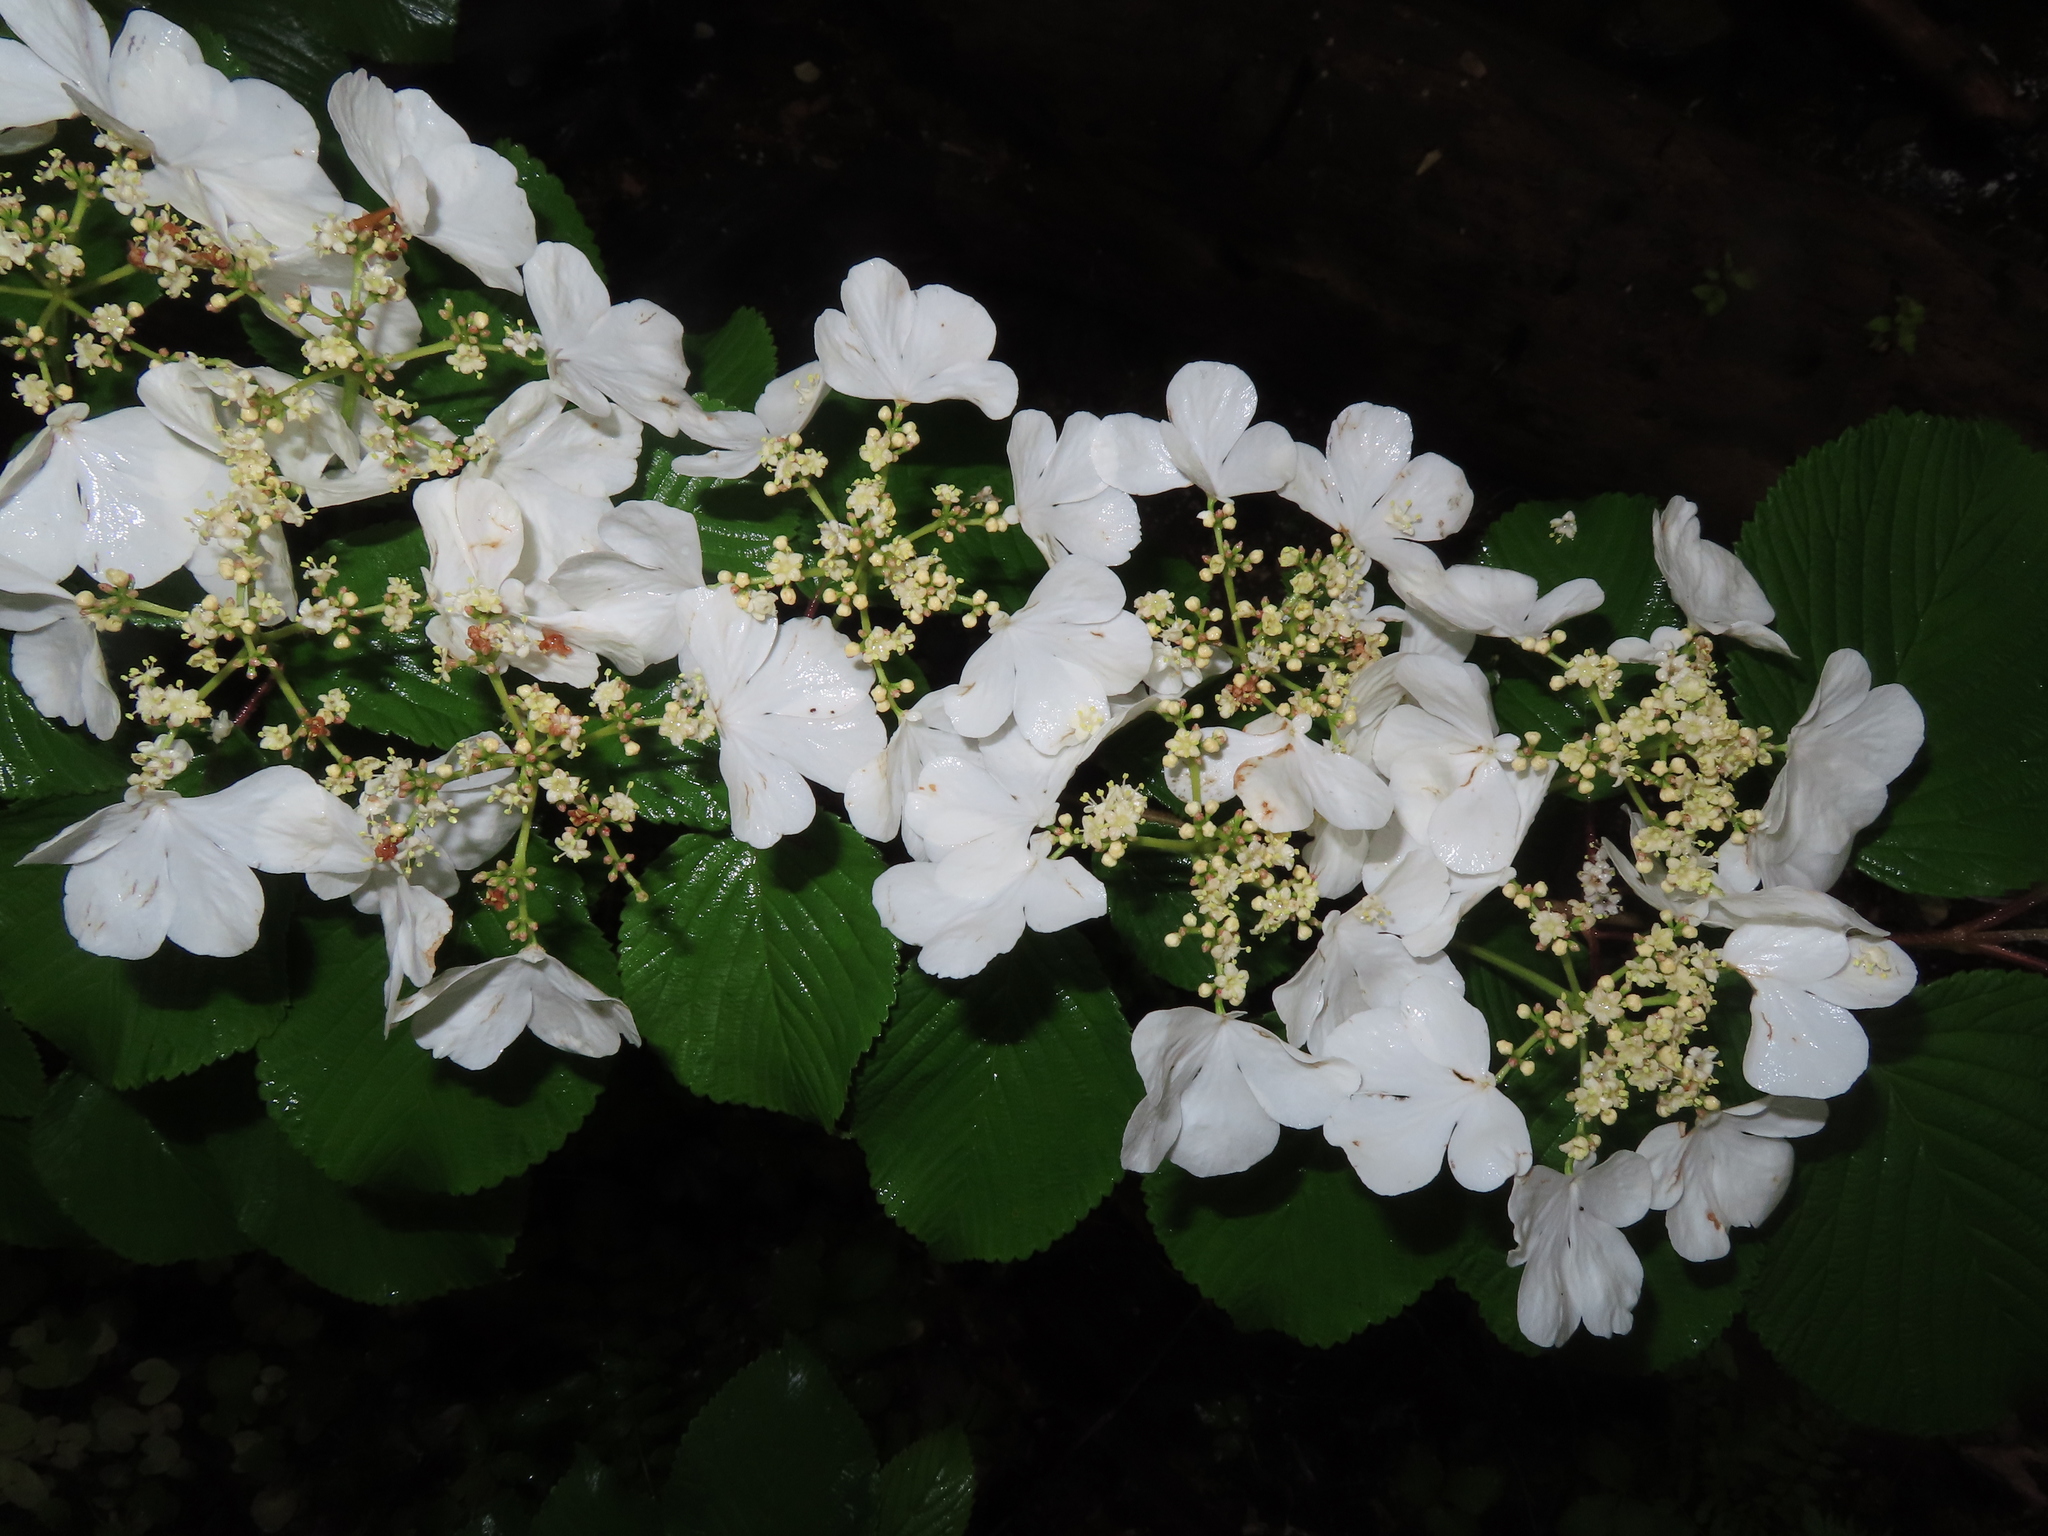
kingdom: Plantae
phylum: Tracheophyta
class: Magnoliopsida
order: Dipsacales
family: Viburnaceae
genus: Viburnum
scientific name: Viburnum plicatum
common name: Japanese snowball
